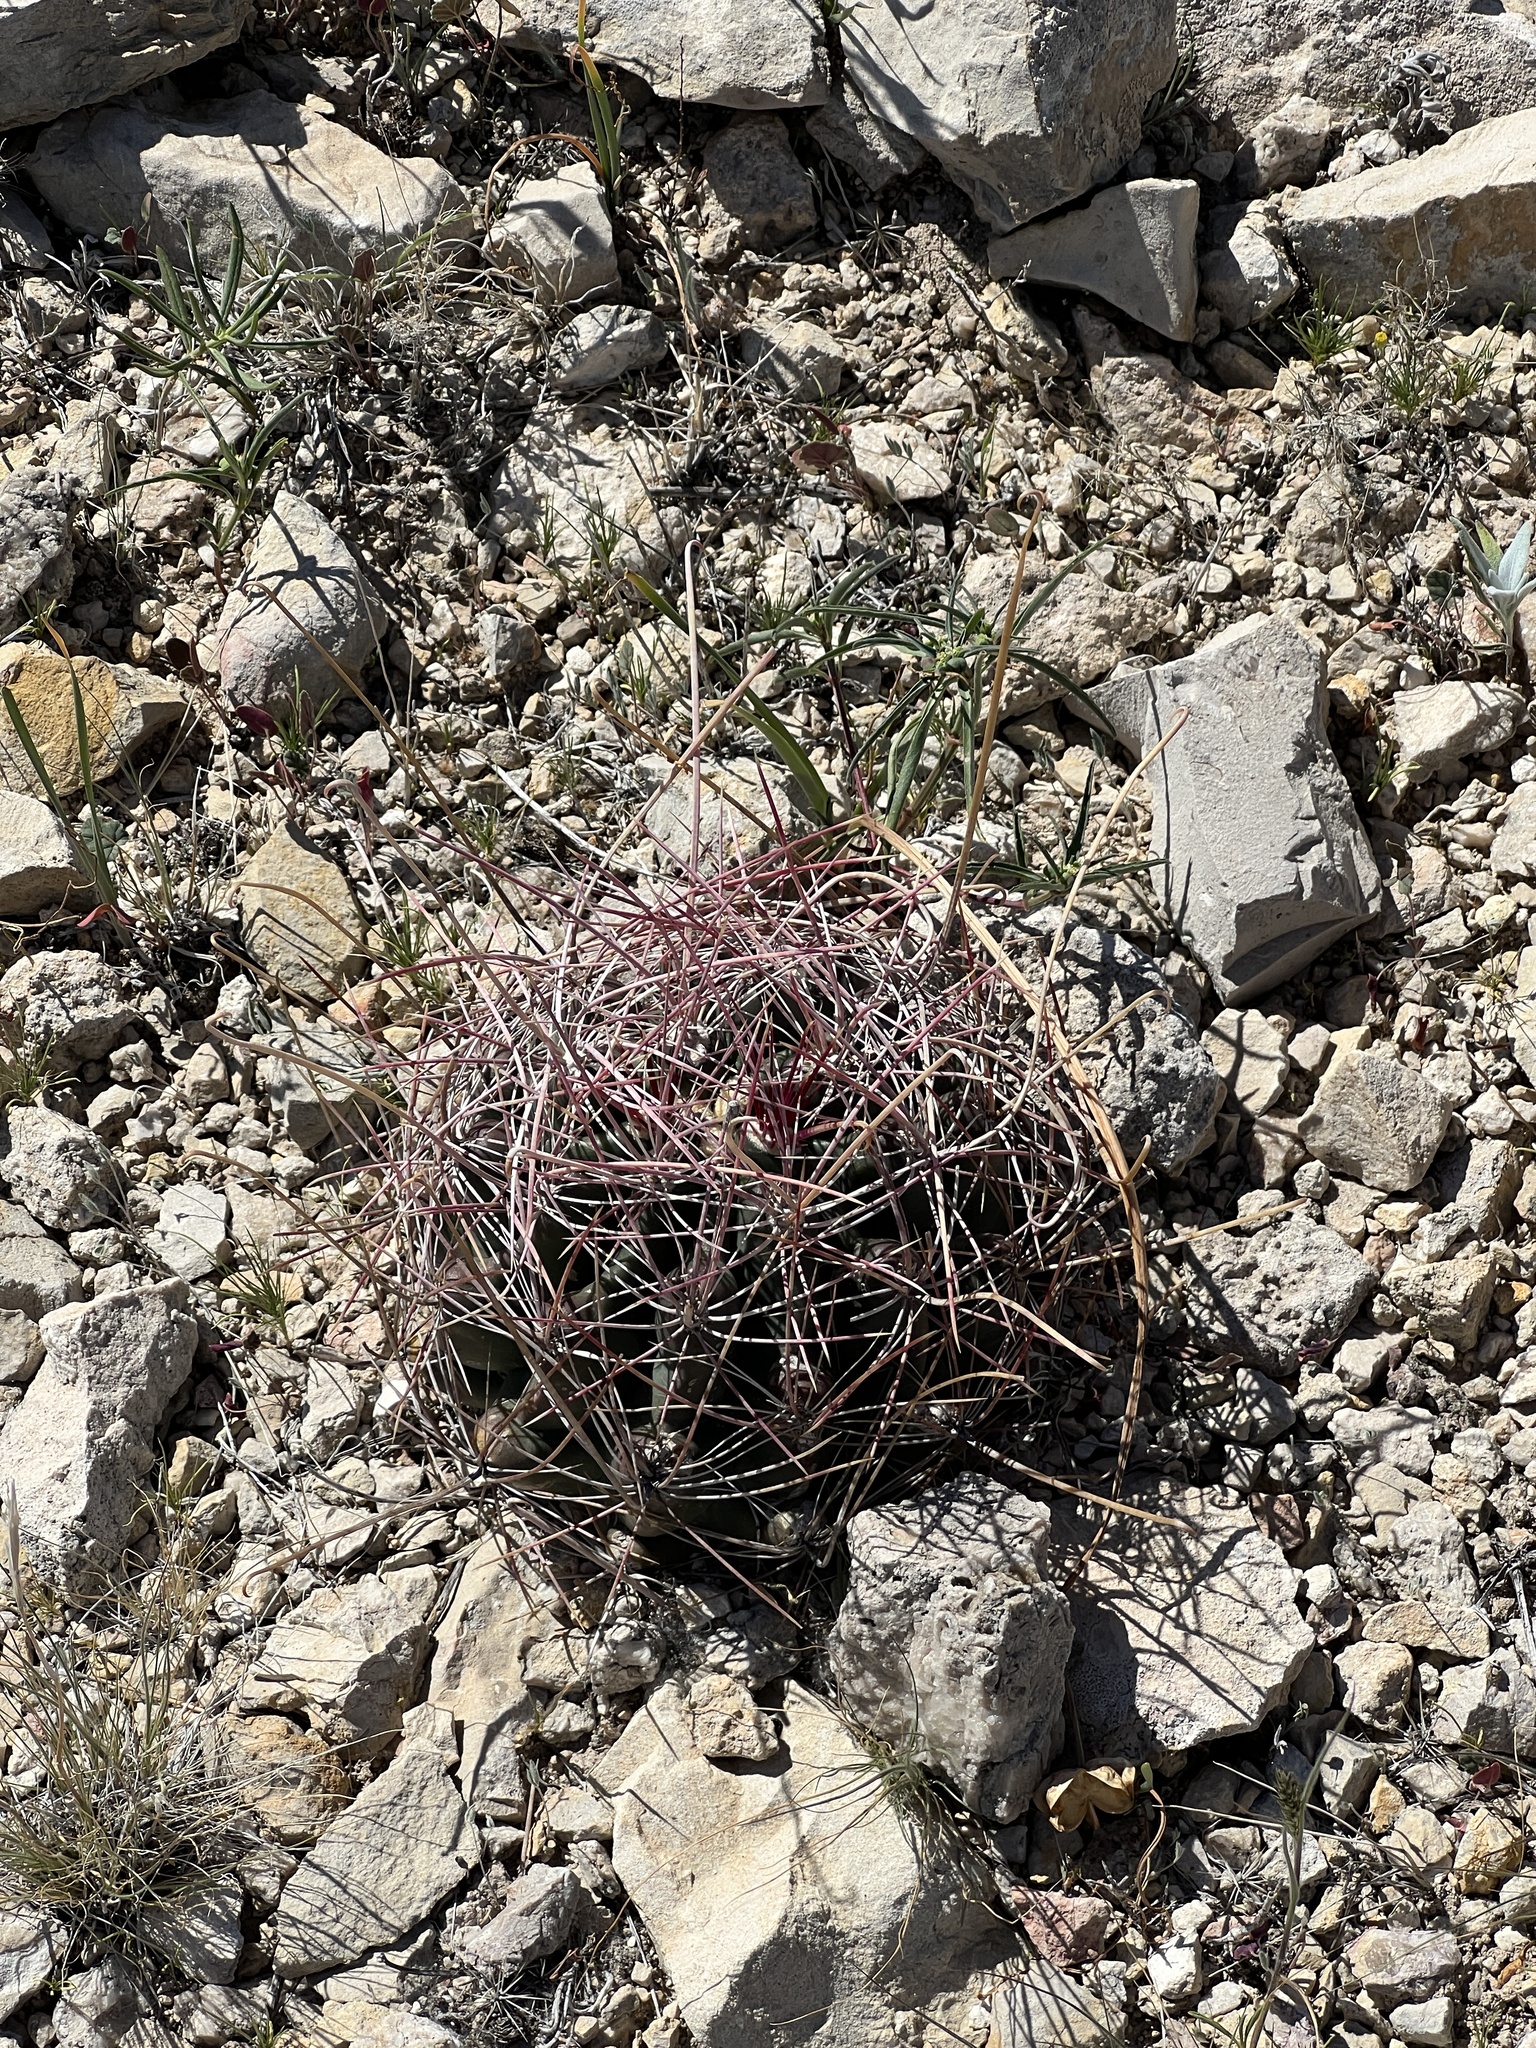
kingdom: Plantae
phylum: Tracheophyta
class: Magnoliopsida
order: Caryophyllales
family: Cactaceae
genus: Bisnaga
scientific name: Bisnaga hamatacantha
